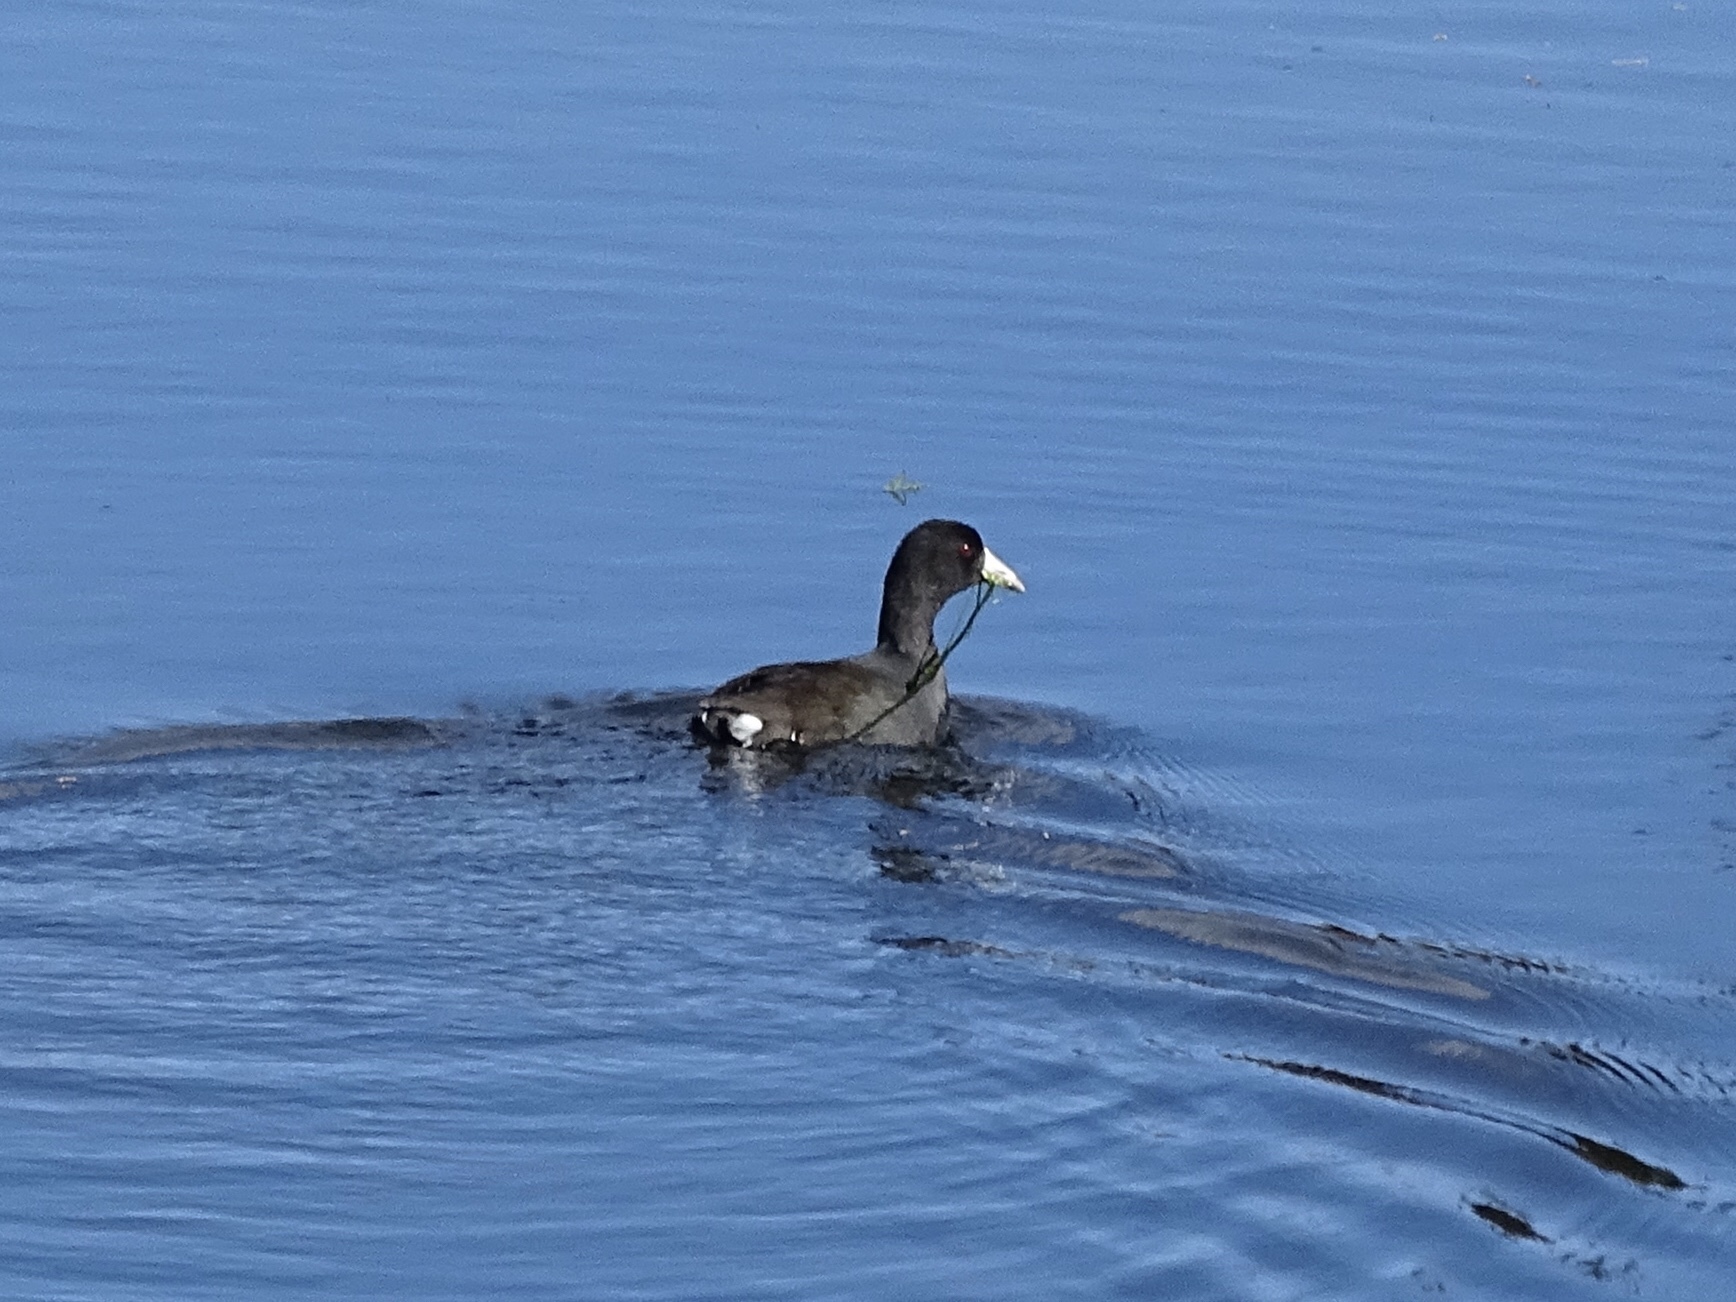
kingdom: Animalia
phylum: Chordata
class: Aves
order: Gruiformes
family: Rallidae
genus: Fulica
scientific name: Fulica americana
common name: American coot
